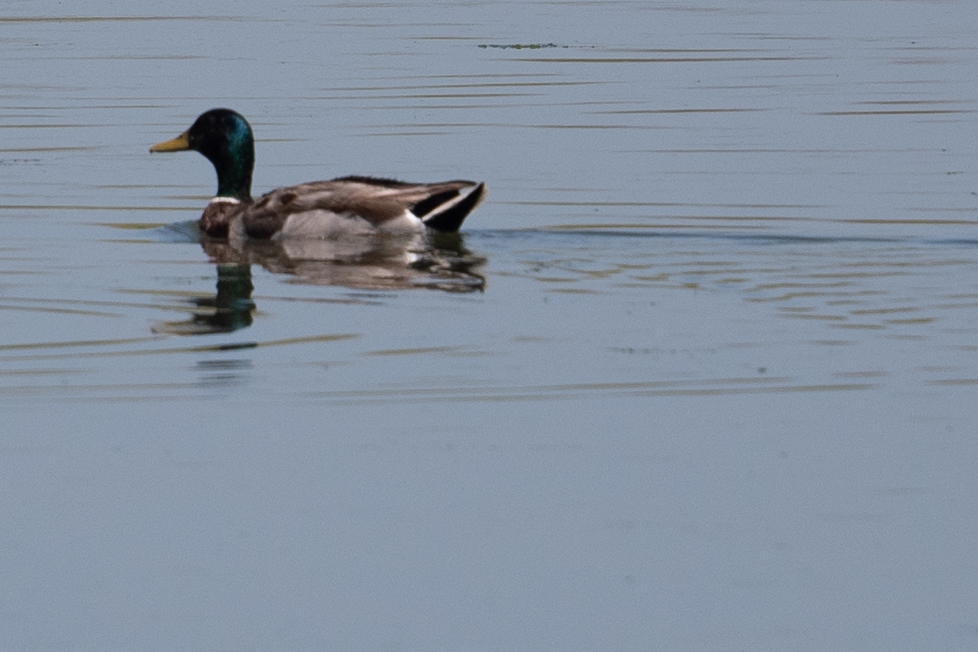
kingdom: Animalia
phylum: Chordata
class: Aves
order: Anseriformes
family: Anatidae
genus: Anas
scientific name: Anas platyrhynchos
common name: Mallard
